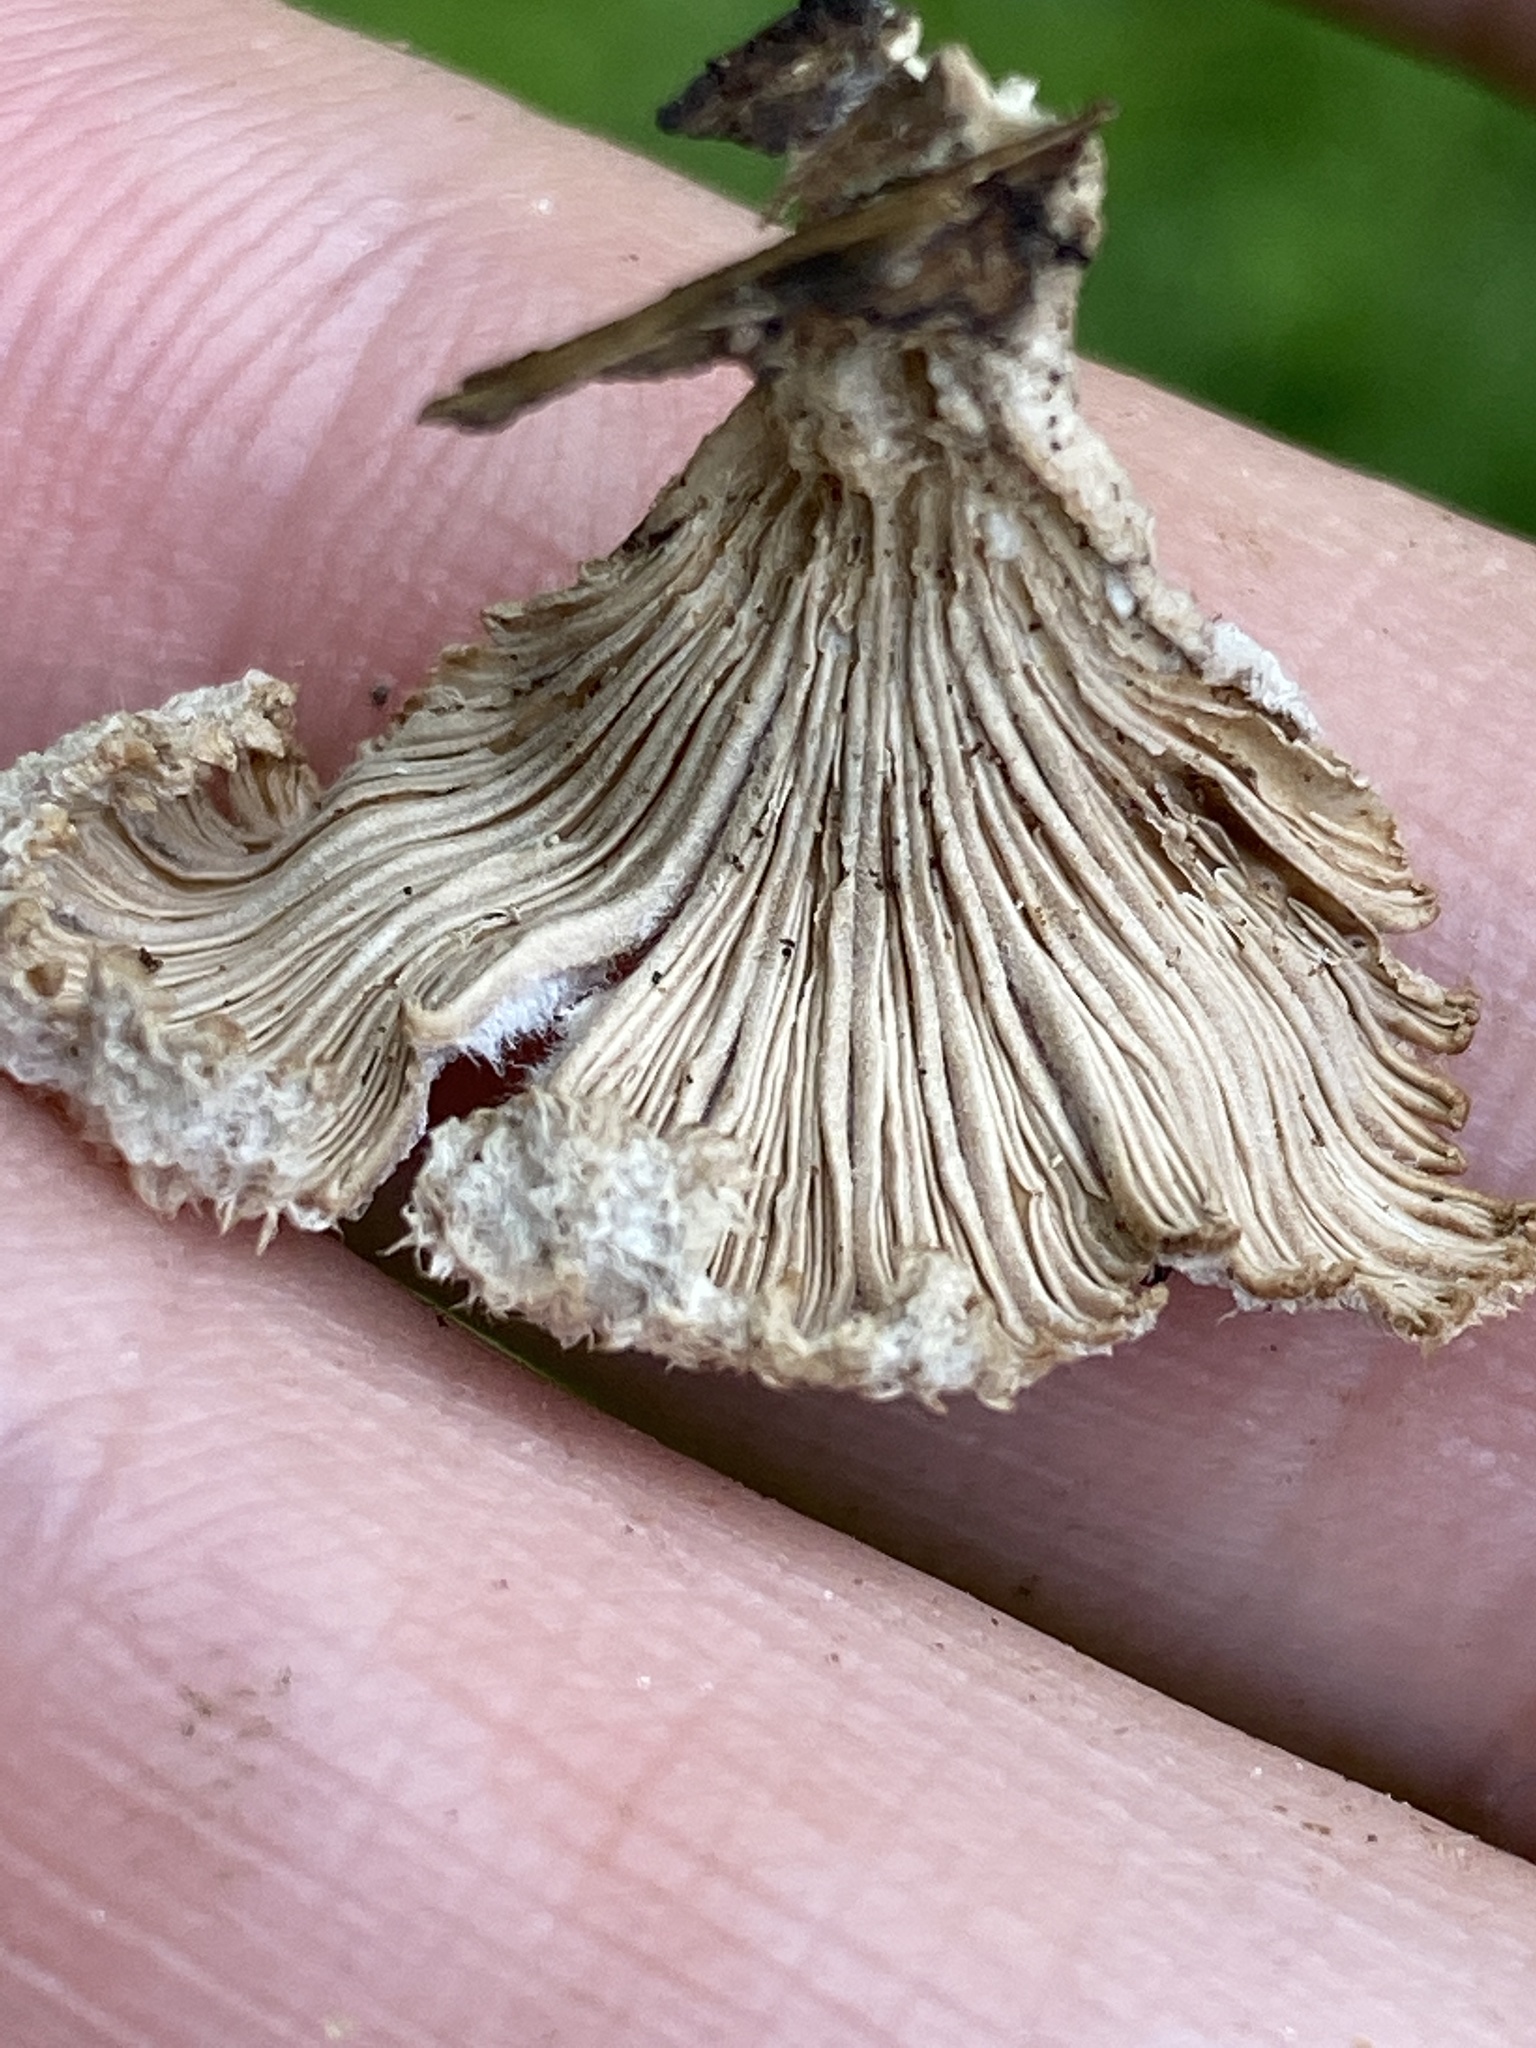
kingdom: Fungi
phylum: Basidiomycota
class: Agaricomycetes
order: Agaricales
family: Schizophyllaceae
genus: Schizophyllum
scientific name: Schizophyllum commune
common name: Common porecrust
